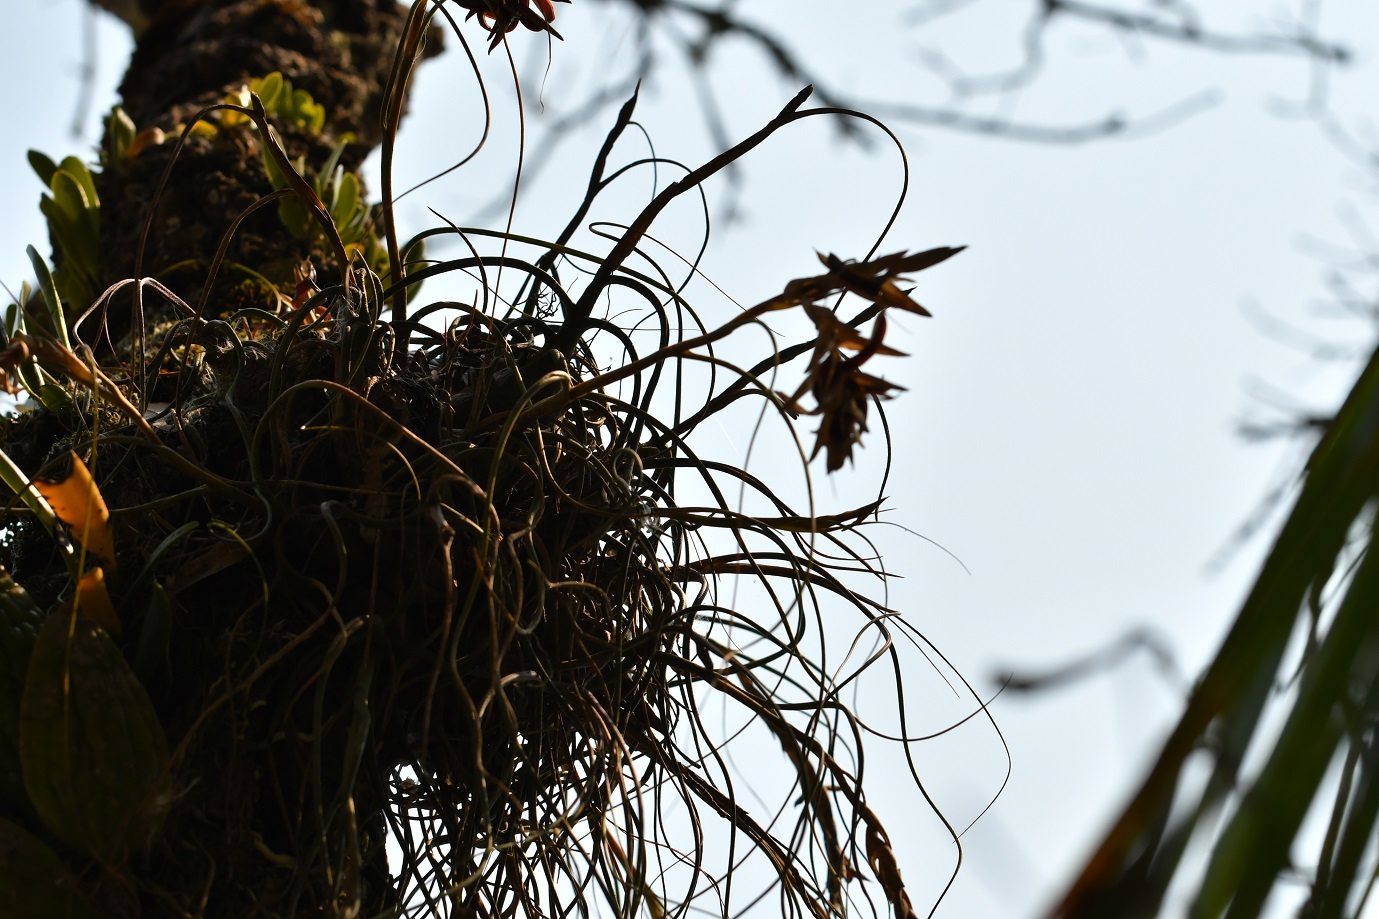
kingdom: Plantae
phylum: Tracheophyta
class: Liliopsida
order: Poales
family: Bromeliaceae
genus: Tillandsia
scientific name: Tillandsia caput-medusae
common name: Octopus plant
